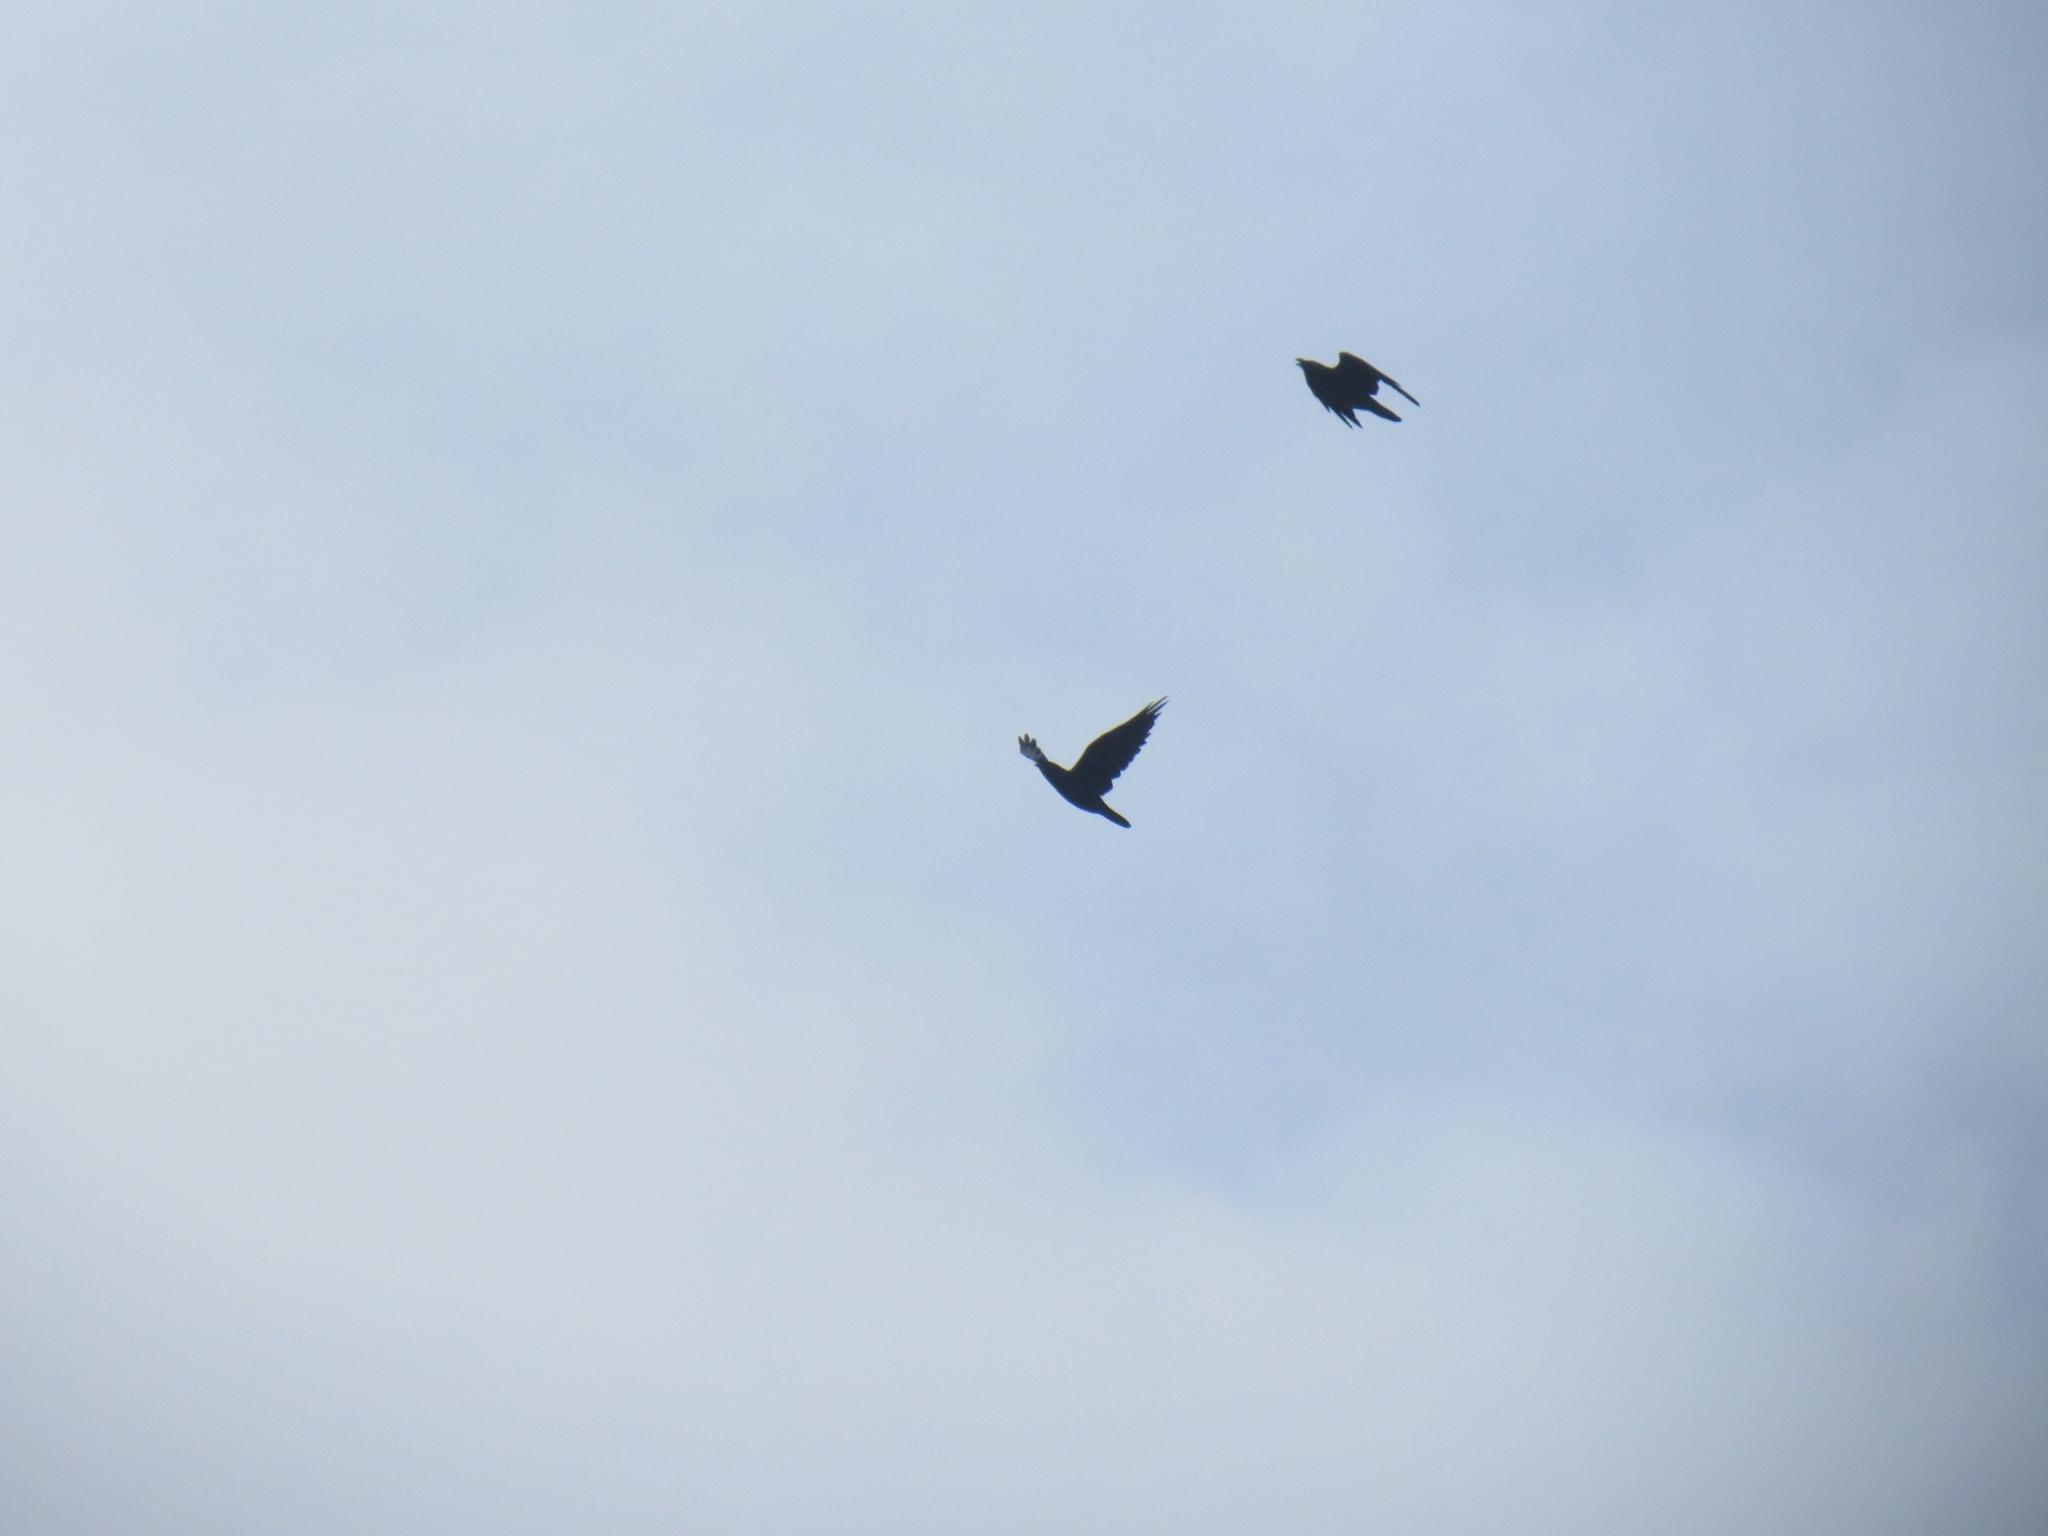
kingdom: Animalia
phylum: Chordata
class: Aves
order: Passeriformes
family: Corvidae
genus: Corvus
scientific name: Corvus corax
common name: Common raven
